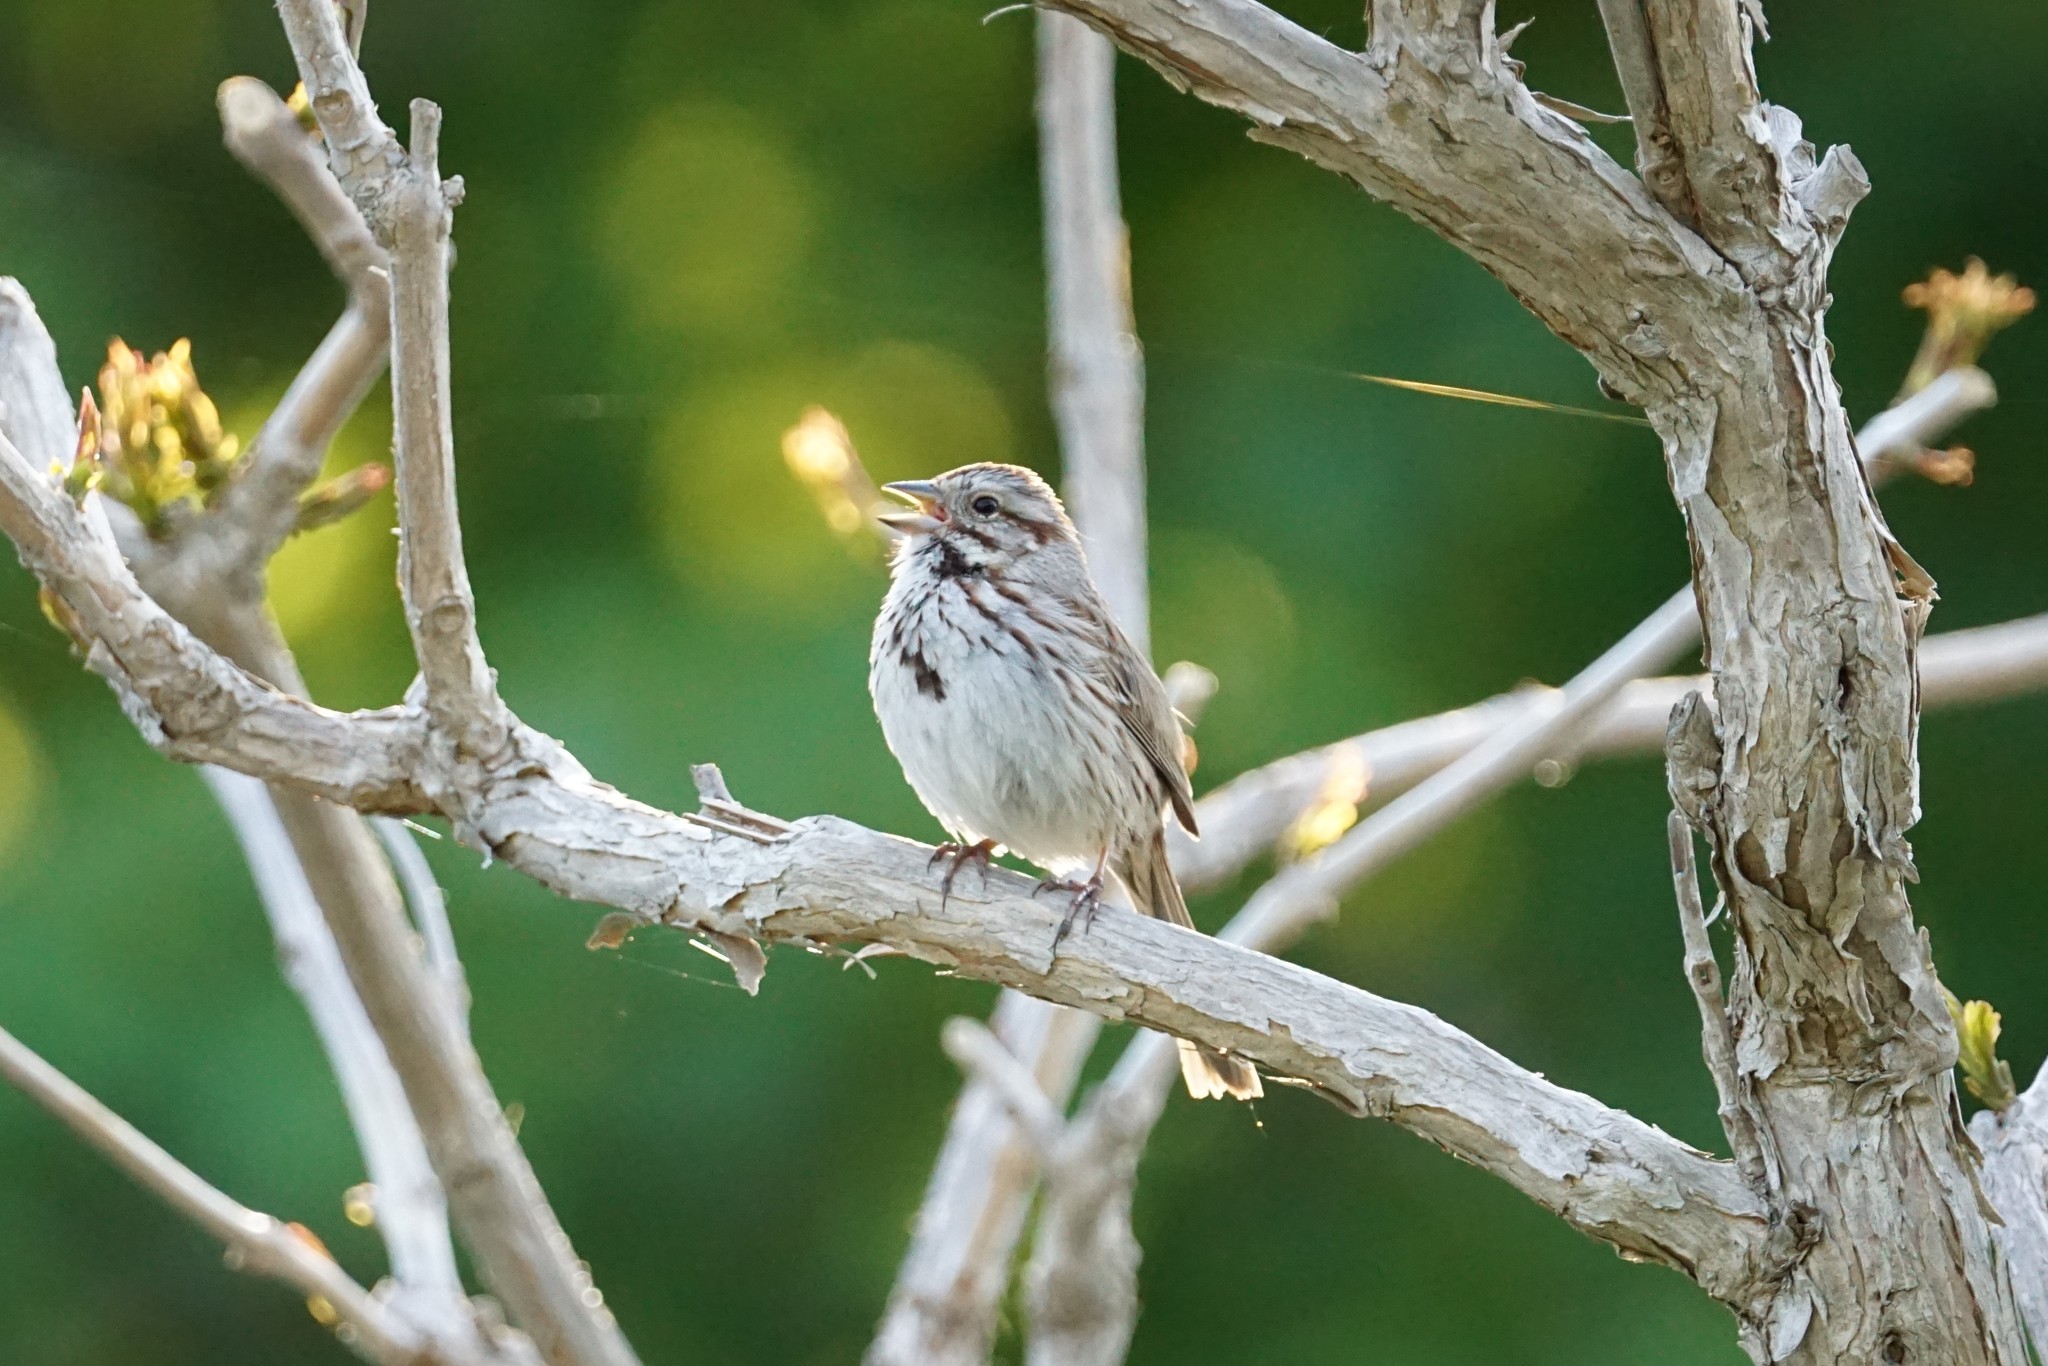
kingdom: Animalia
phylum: Chordata
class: Aves
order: Passeriformes
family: Passerellidae
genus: Melospiza
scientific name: Melospiza melodia
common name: Song sparrow
